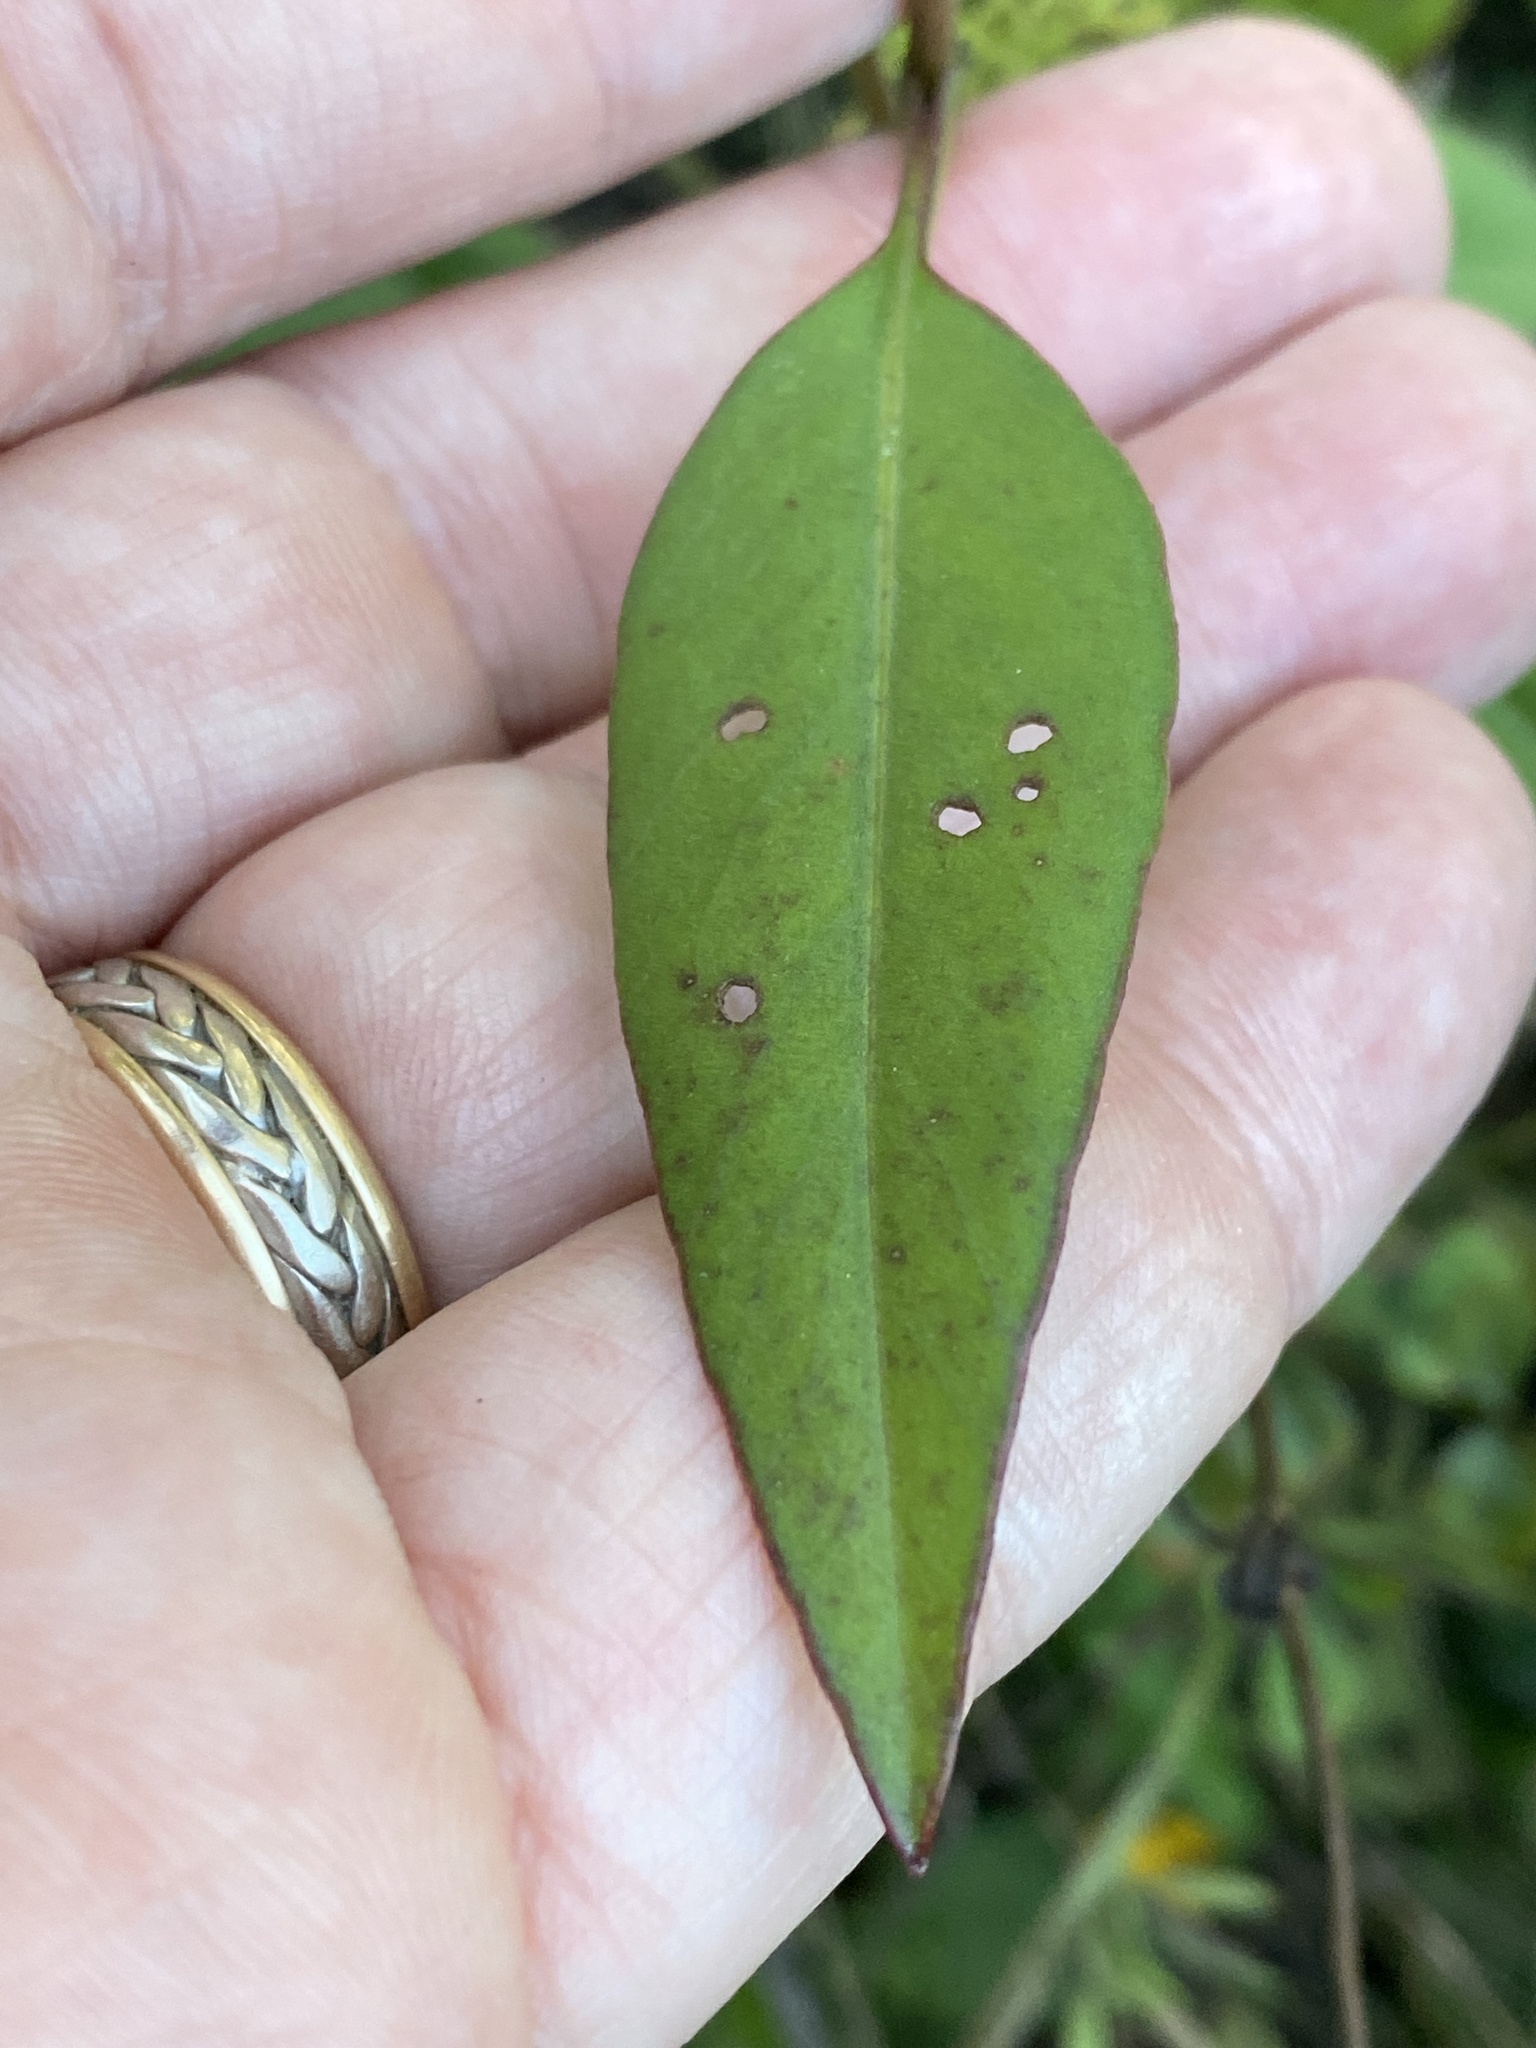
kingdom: Plantae
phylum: Tracheophyta
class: Magnoliopsida
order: Asterales
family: Asteraceae
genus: Coreopsis
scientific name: Coreopsis palustris
